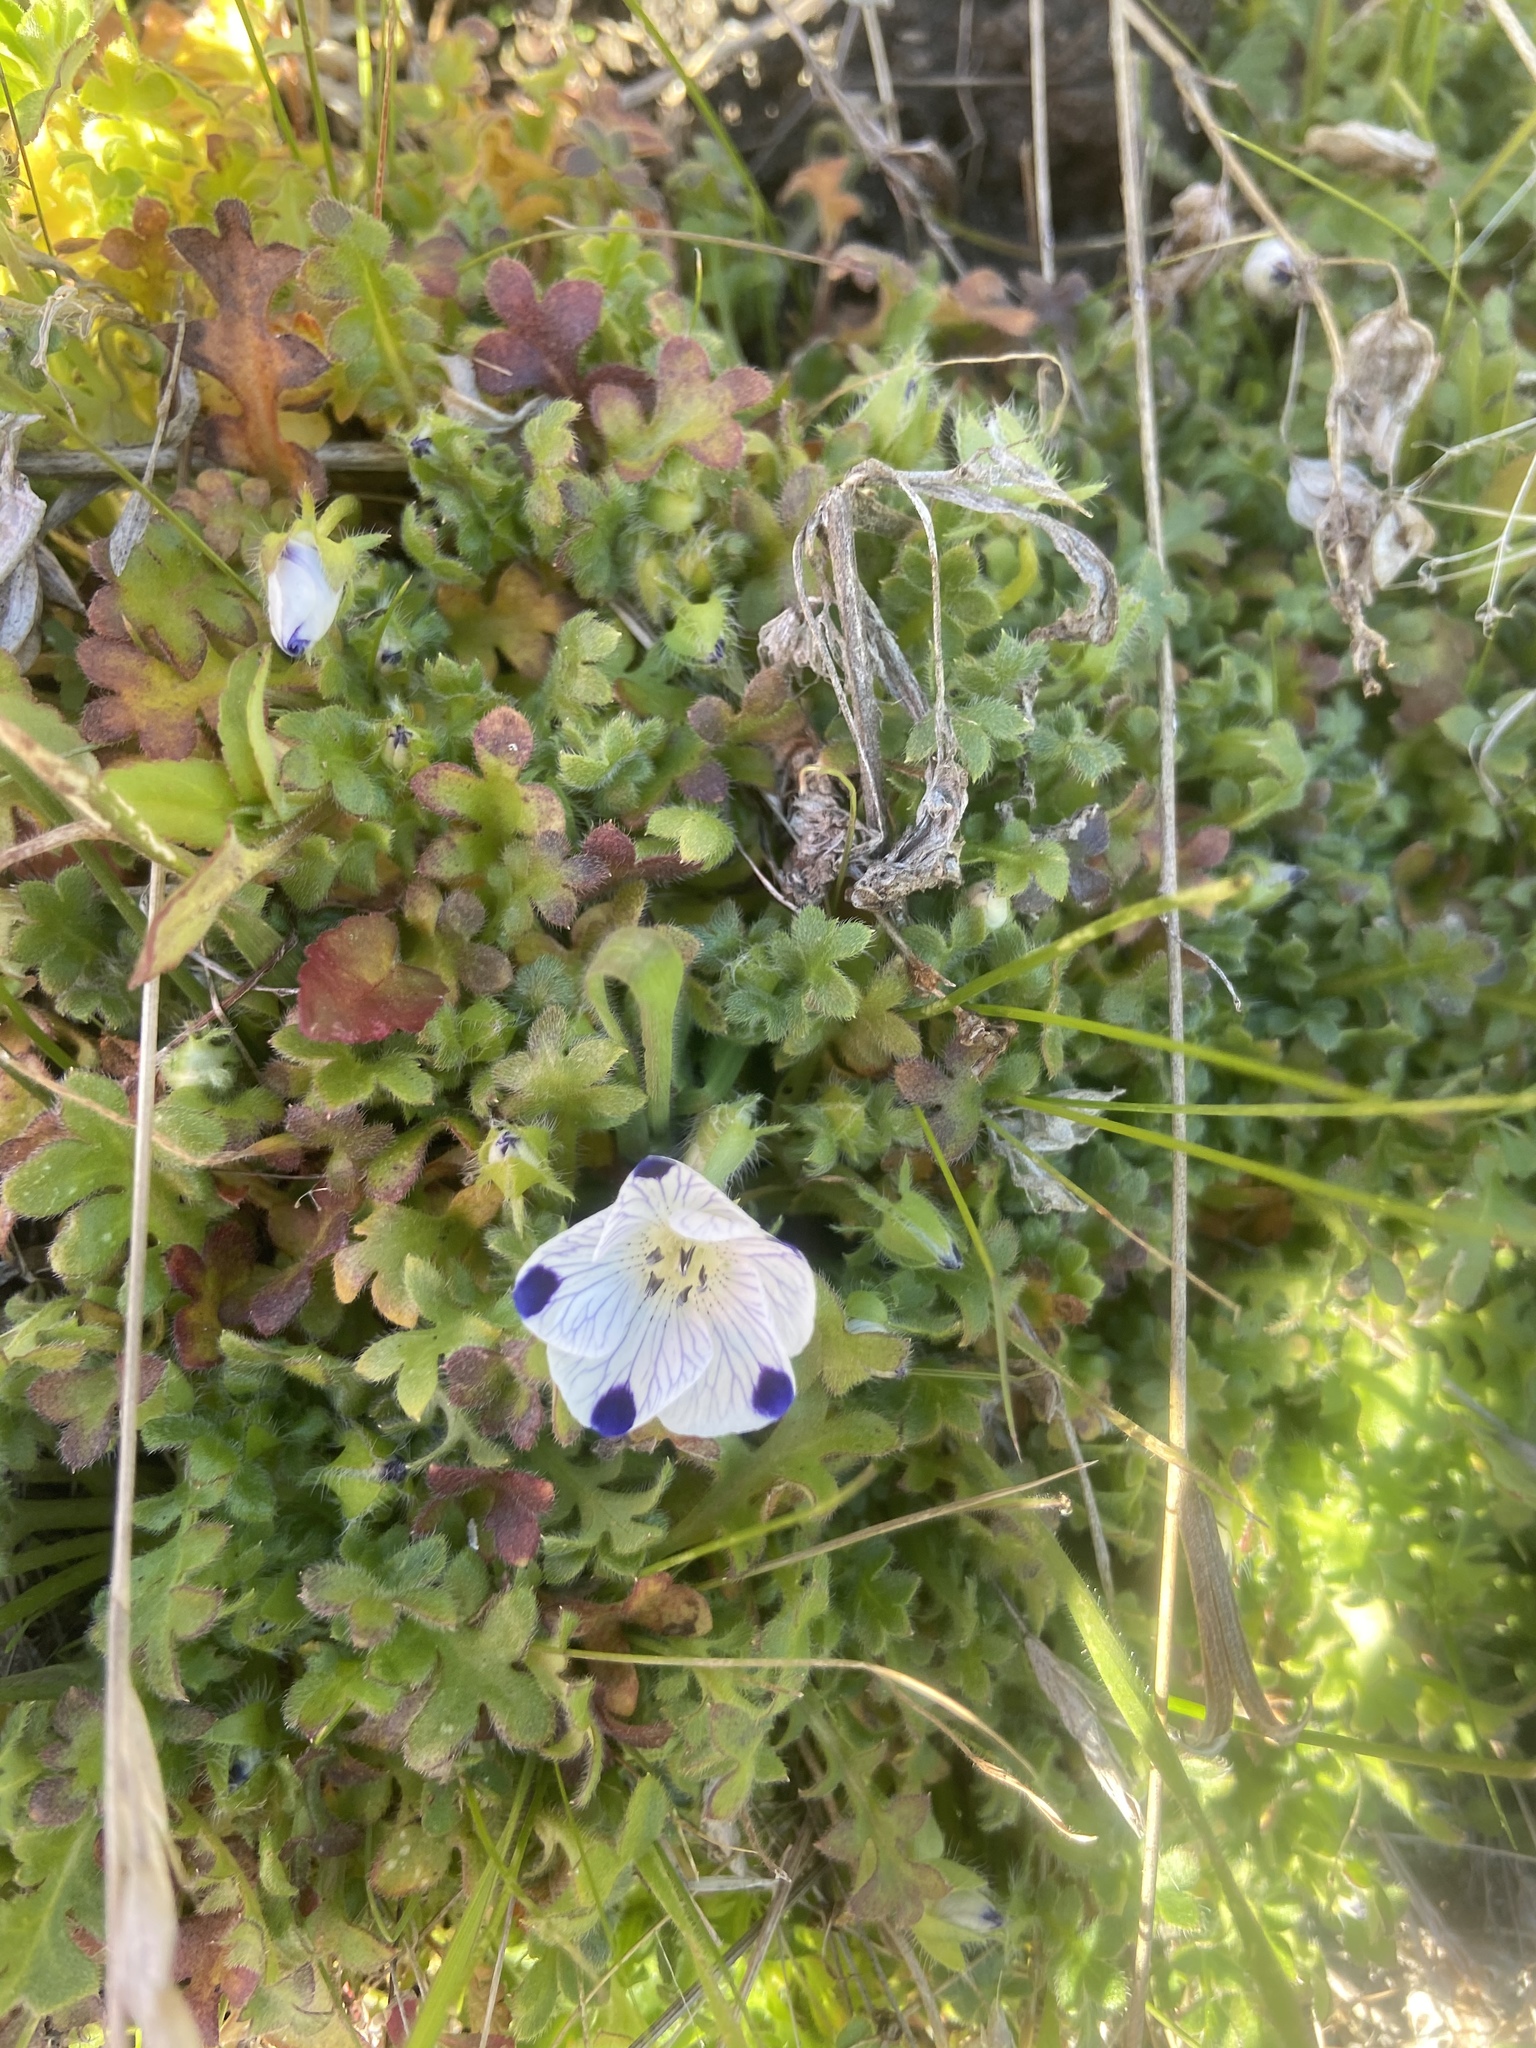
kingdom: Plantae
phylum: Tracheophyta
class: Magnoliopsida
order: Boraginales
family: Hydrophyllaceae
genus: Nemophila
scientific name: Nemophila maculata
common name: Fivespot
